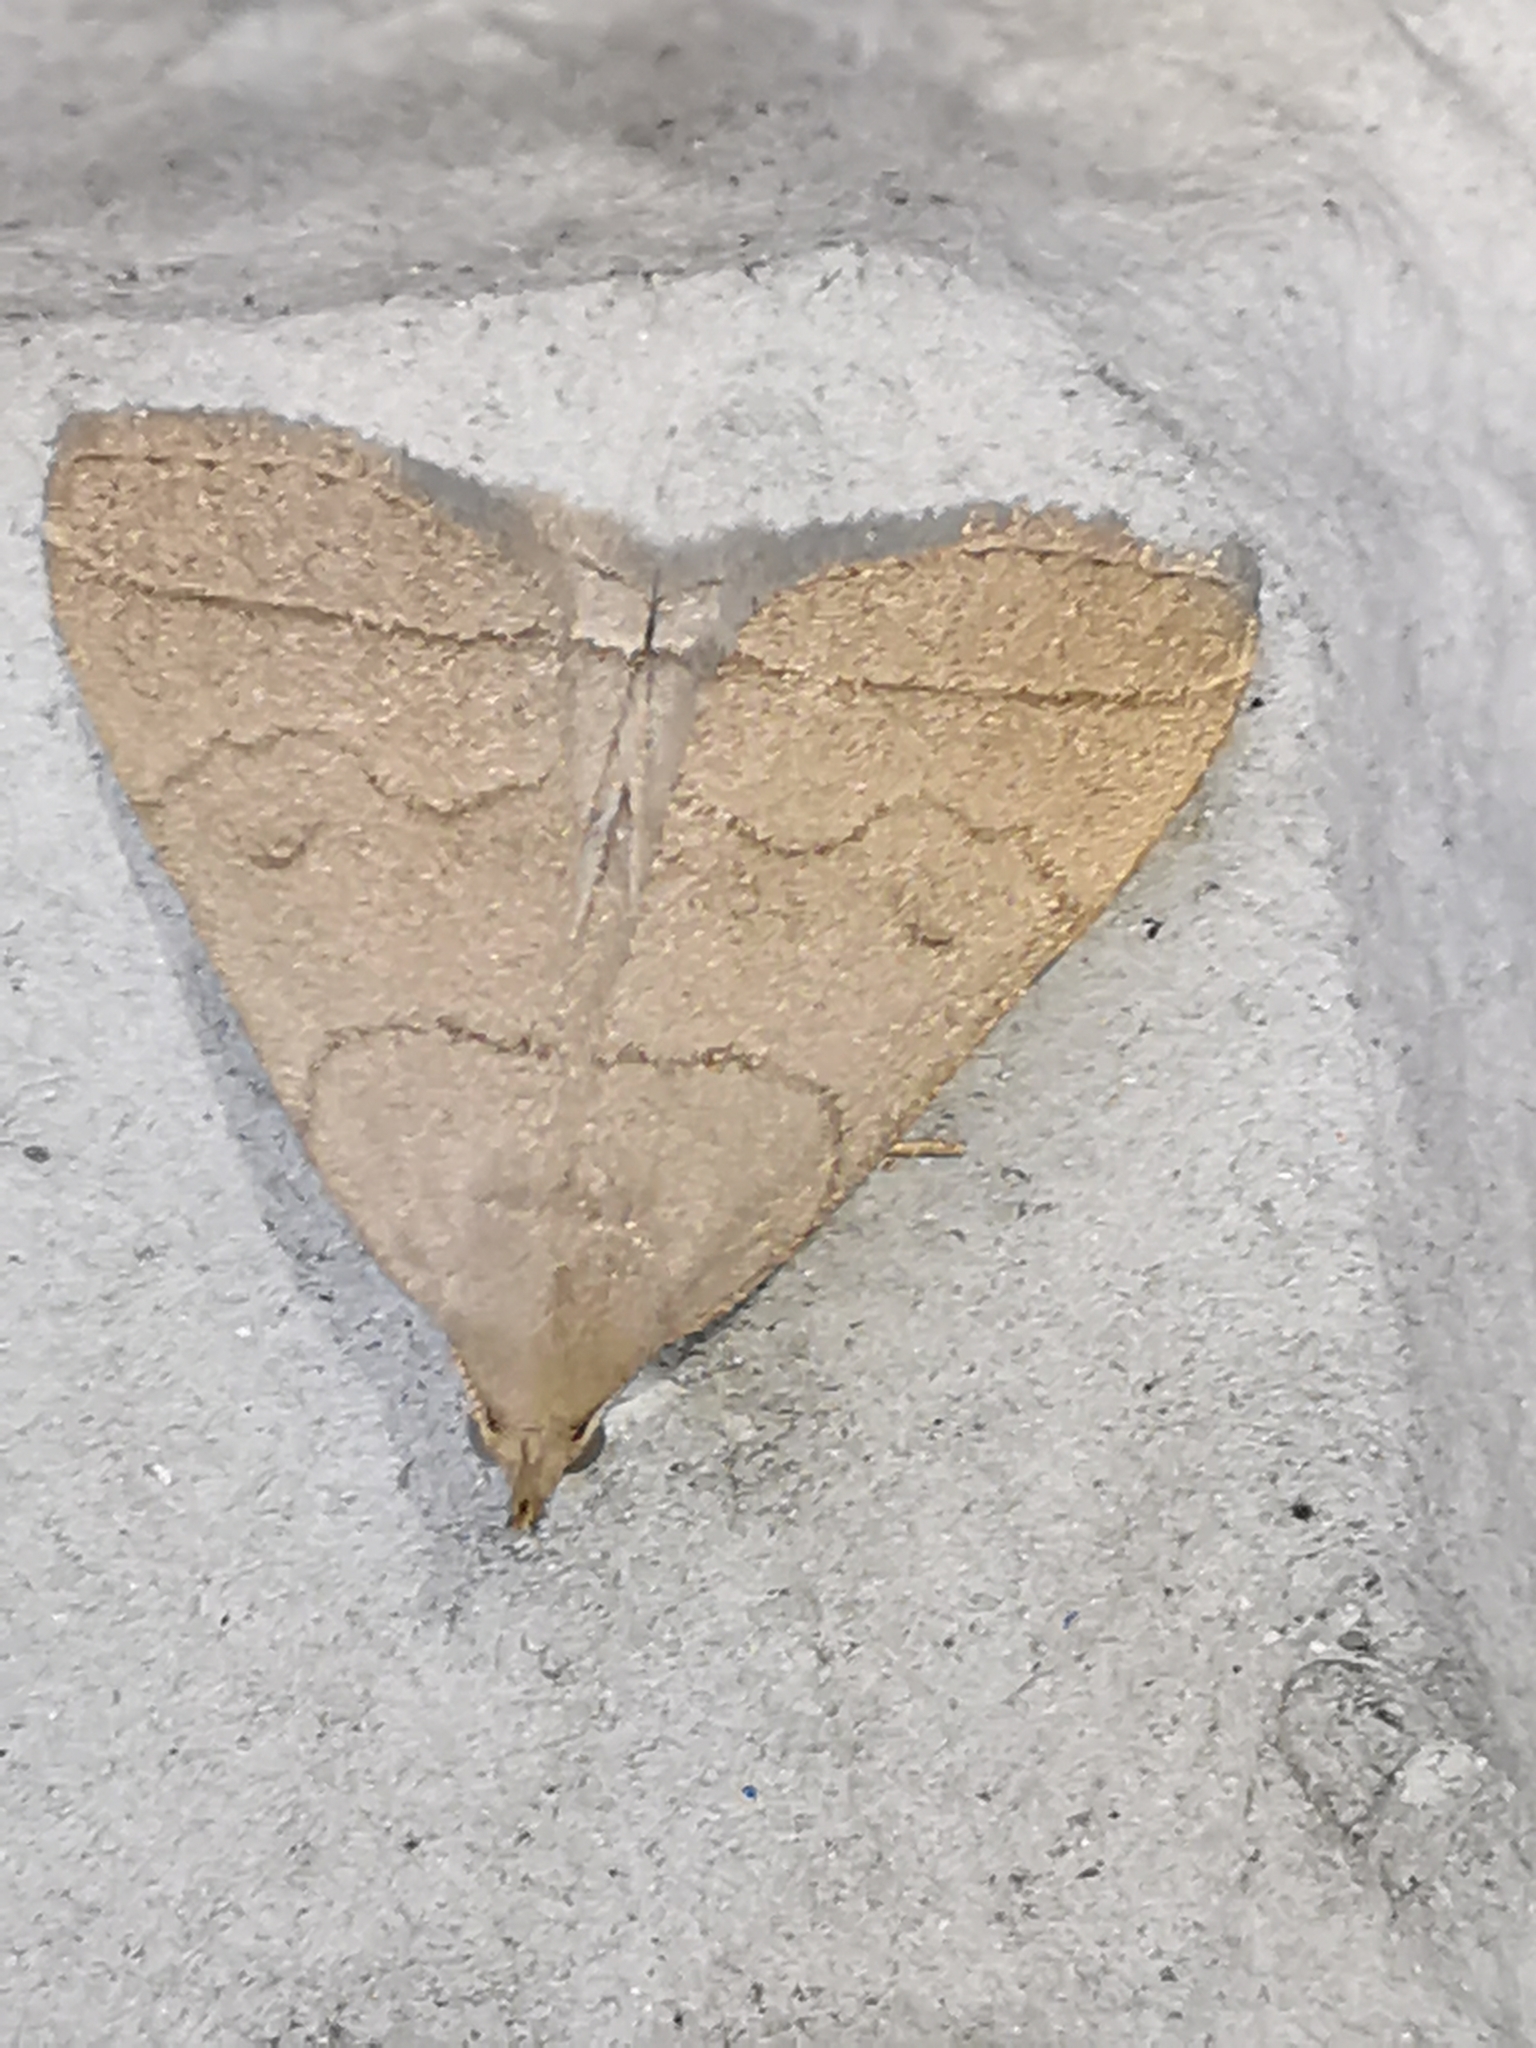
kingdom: Animalia
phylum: Arthropoda
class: Insecta
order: Lepidoptera
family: Erebidae
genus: Herminia
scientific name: Herminia tarsipennalis
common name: Fan-foot
